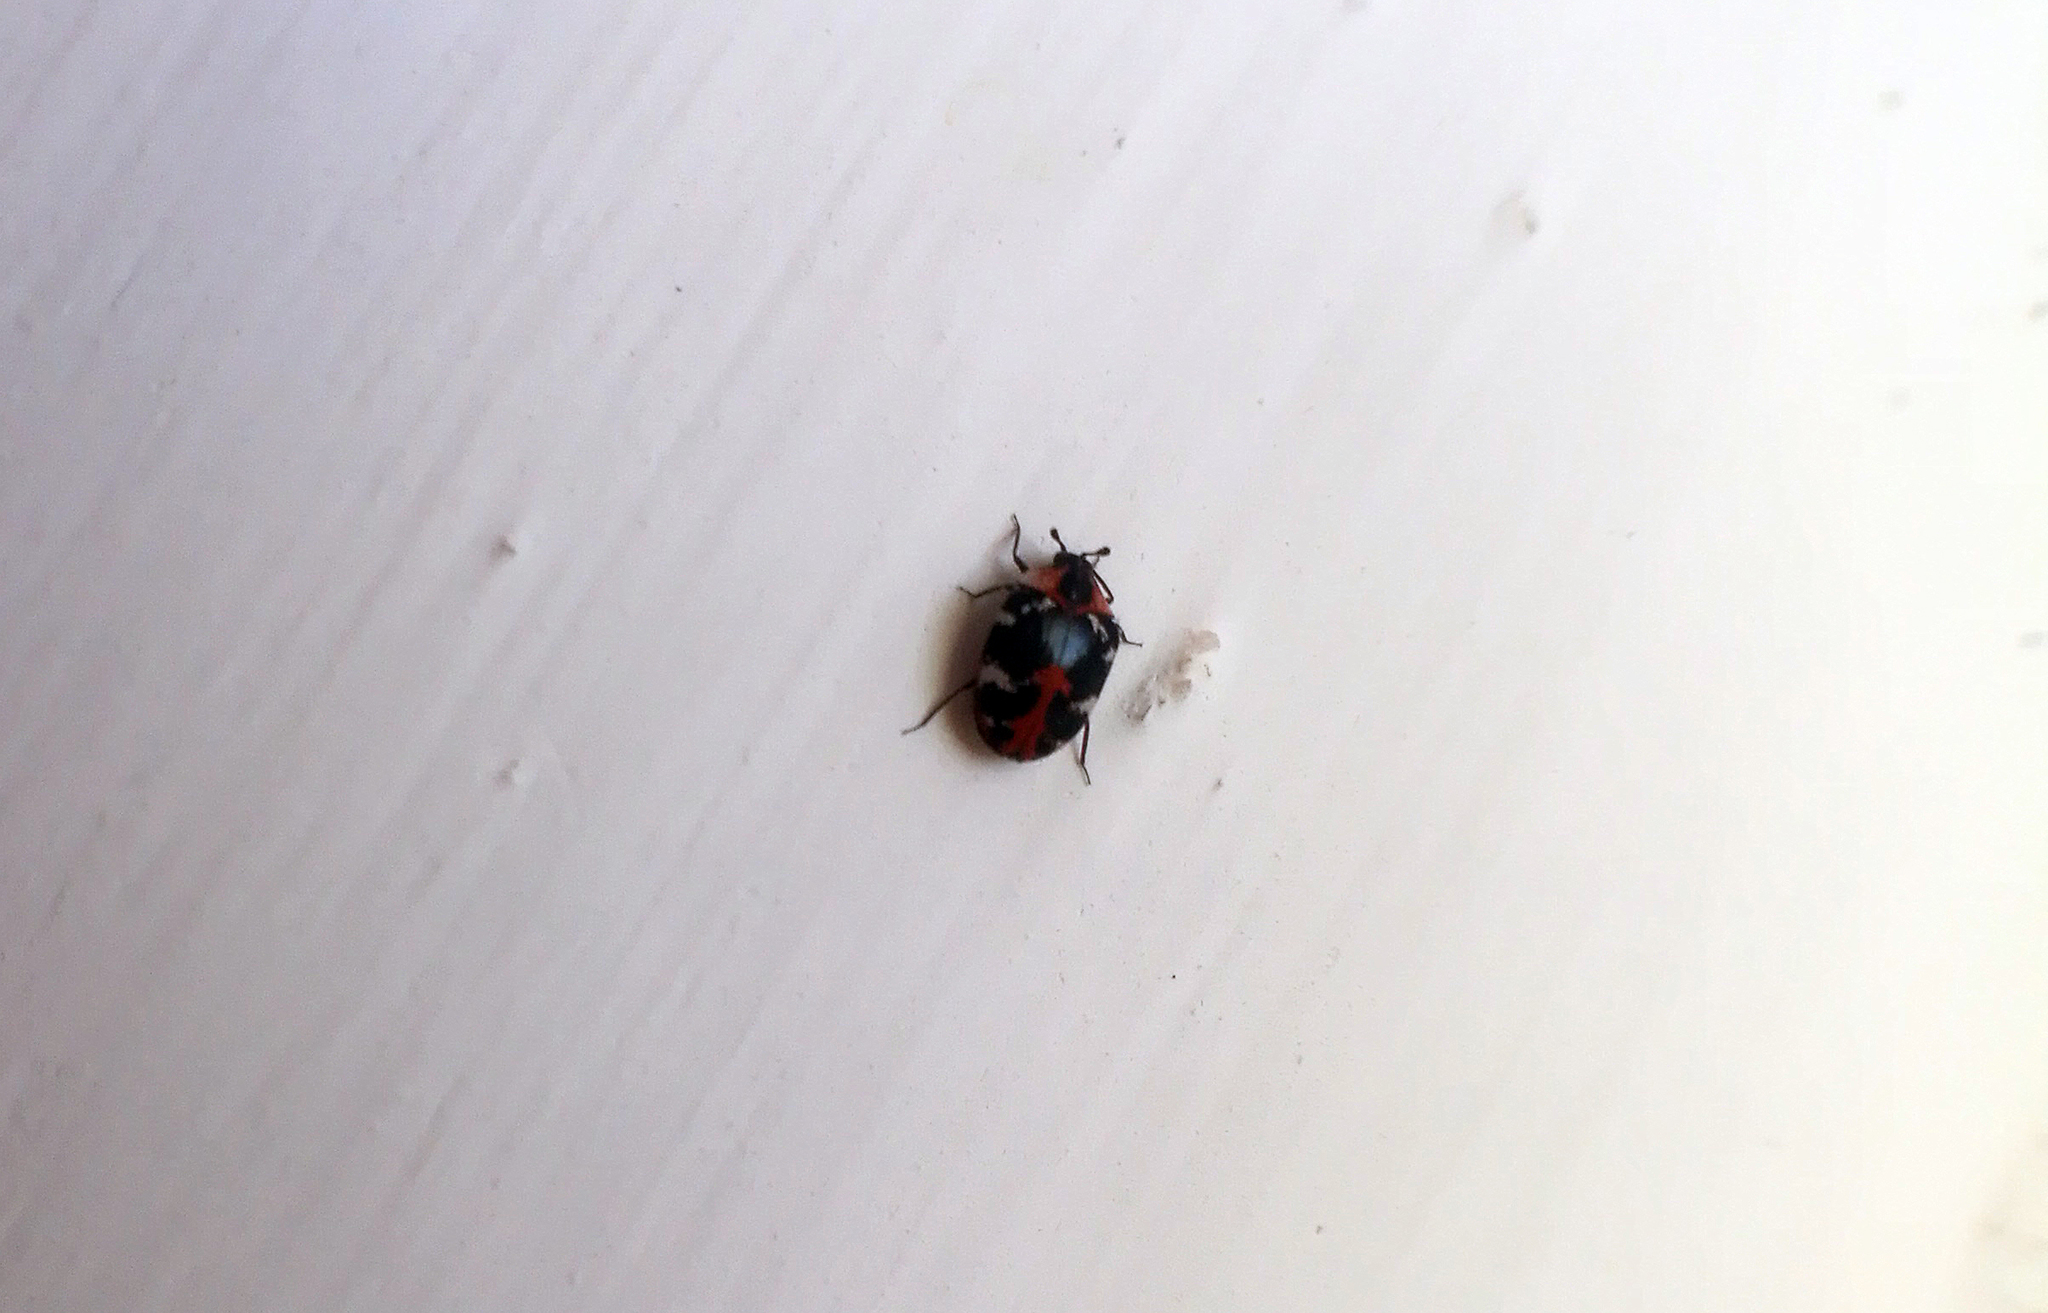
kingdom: Animalia
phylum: Arthropoda
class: Insecta
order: Coleoptera
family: Dermestidae
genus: Anthrenus
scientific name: Anthrenus scrophulariae
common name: Buffalo carpet beetle
